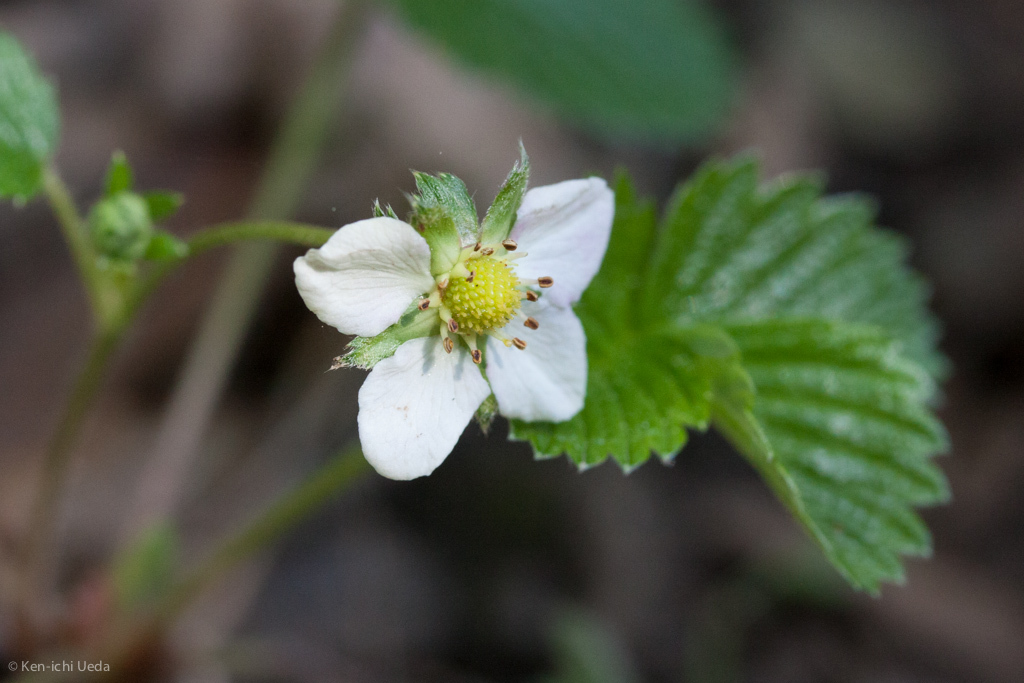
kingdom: Plantae
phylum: Tracheophyta
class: Magnoliopsida
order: Rosales
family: Rosaceae
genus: Fragaria
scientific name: Fragaria vesca
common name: Wild strawberry
